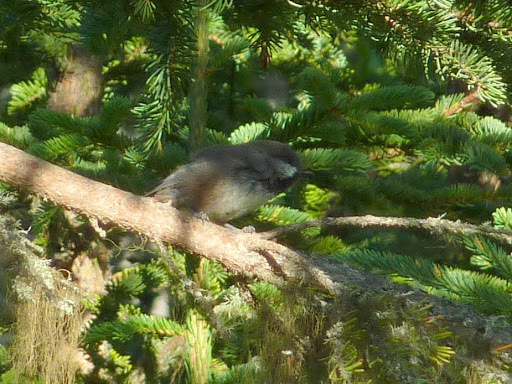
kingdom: Animalia
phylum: Chordata
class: Aves
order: Passeriformes
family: Paridae
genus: Poecile
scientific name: Poecile hudsonicus
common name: Boreal chickadee
